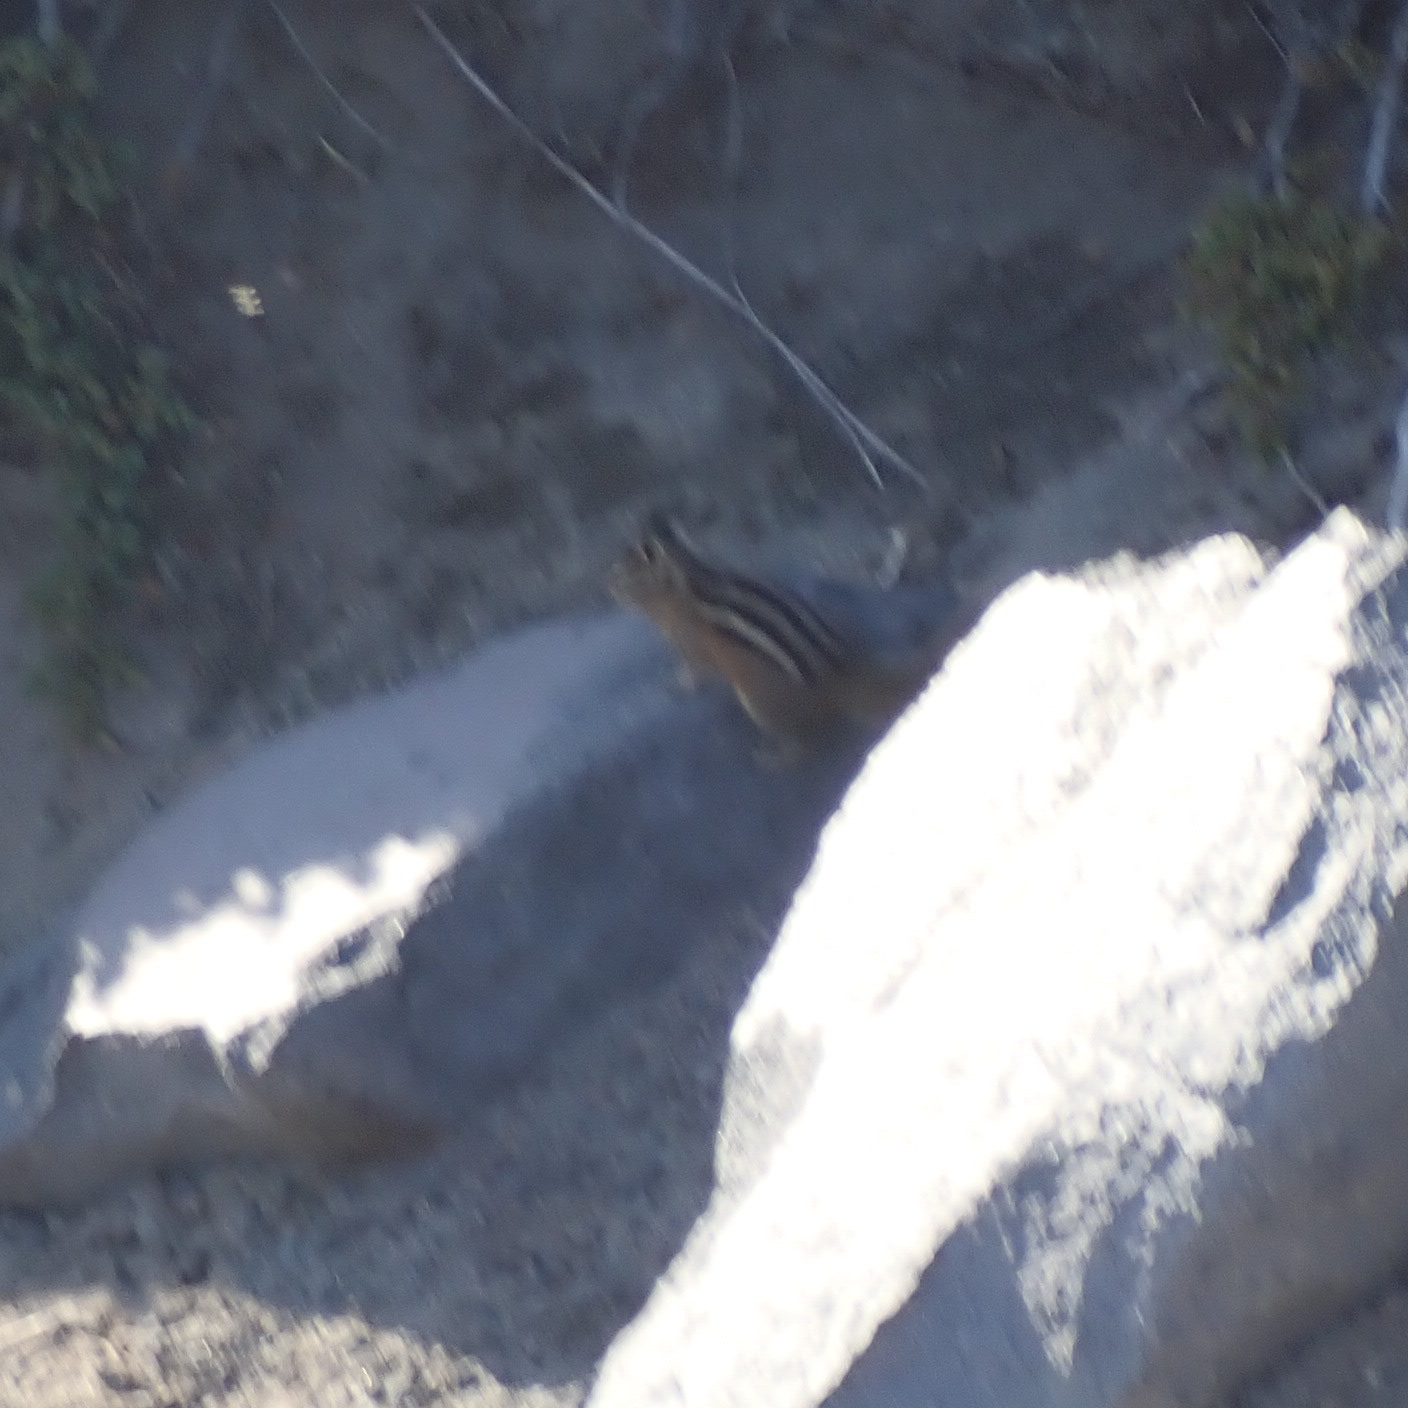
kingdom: Animalia
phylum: Chordata
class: Mammalia
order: Rodentia
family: Sciuridae
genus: Tamias
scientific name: Tamias amoenus
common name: Yellow-pine chipmunk
